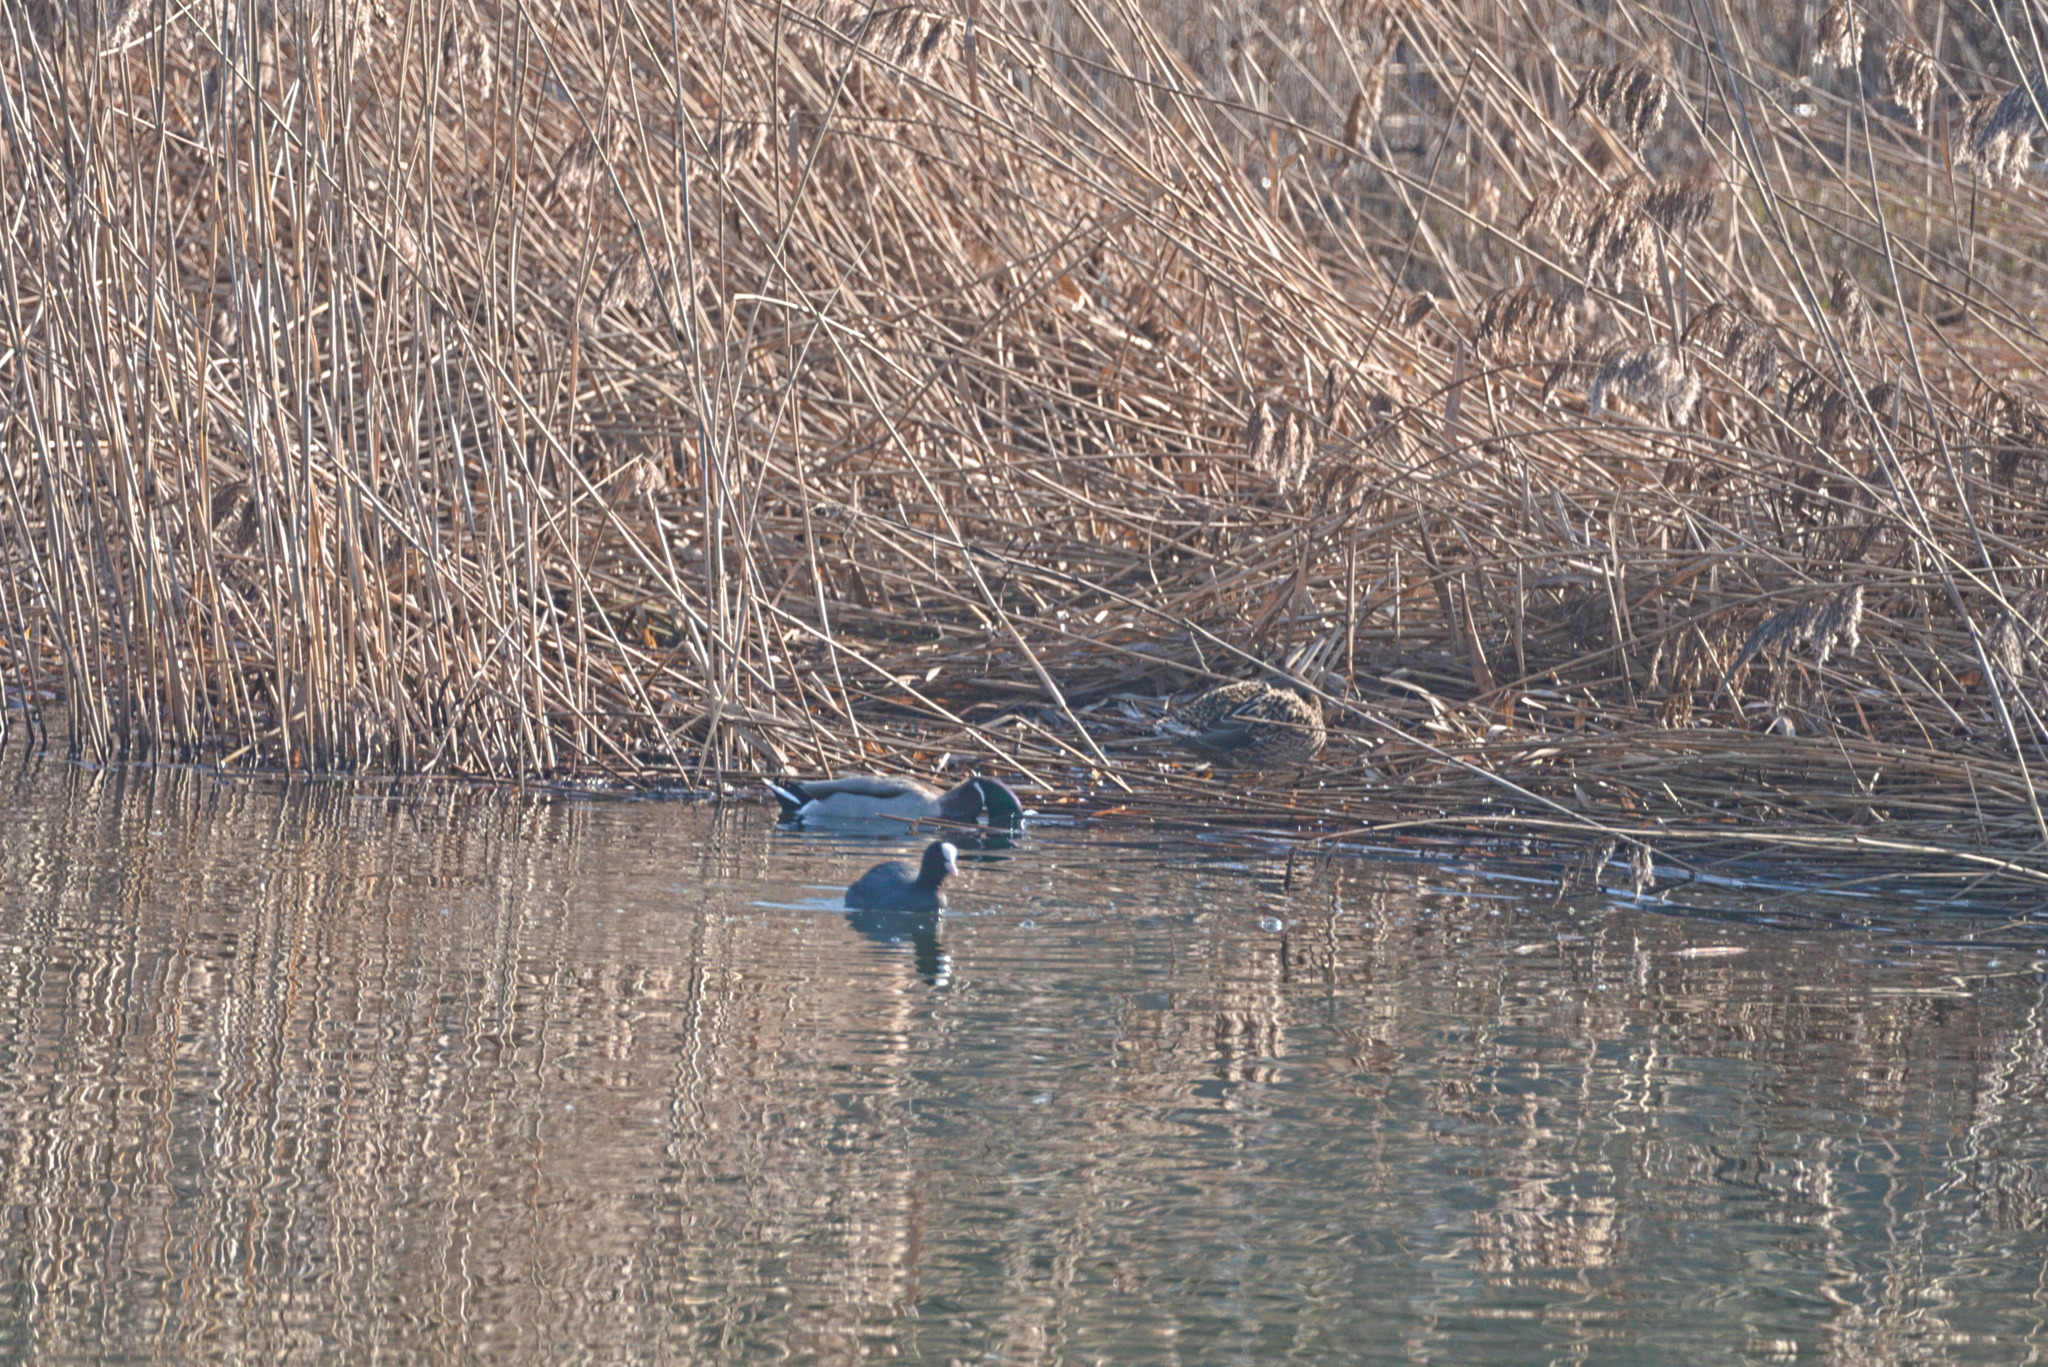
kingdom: Animalia
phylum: Chordata
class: Aves
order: Anseriformes
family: Anatidae
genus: Anas
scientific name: Anas platyrhynchos
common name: Mallard
